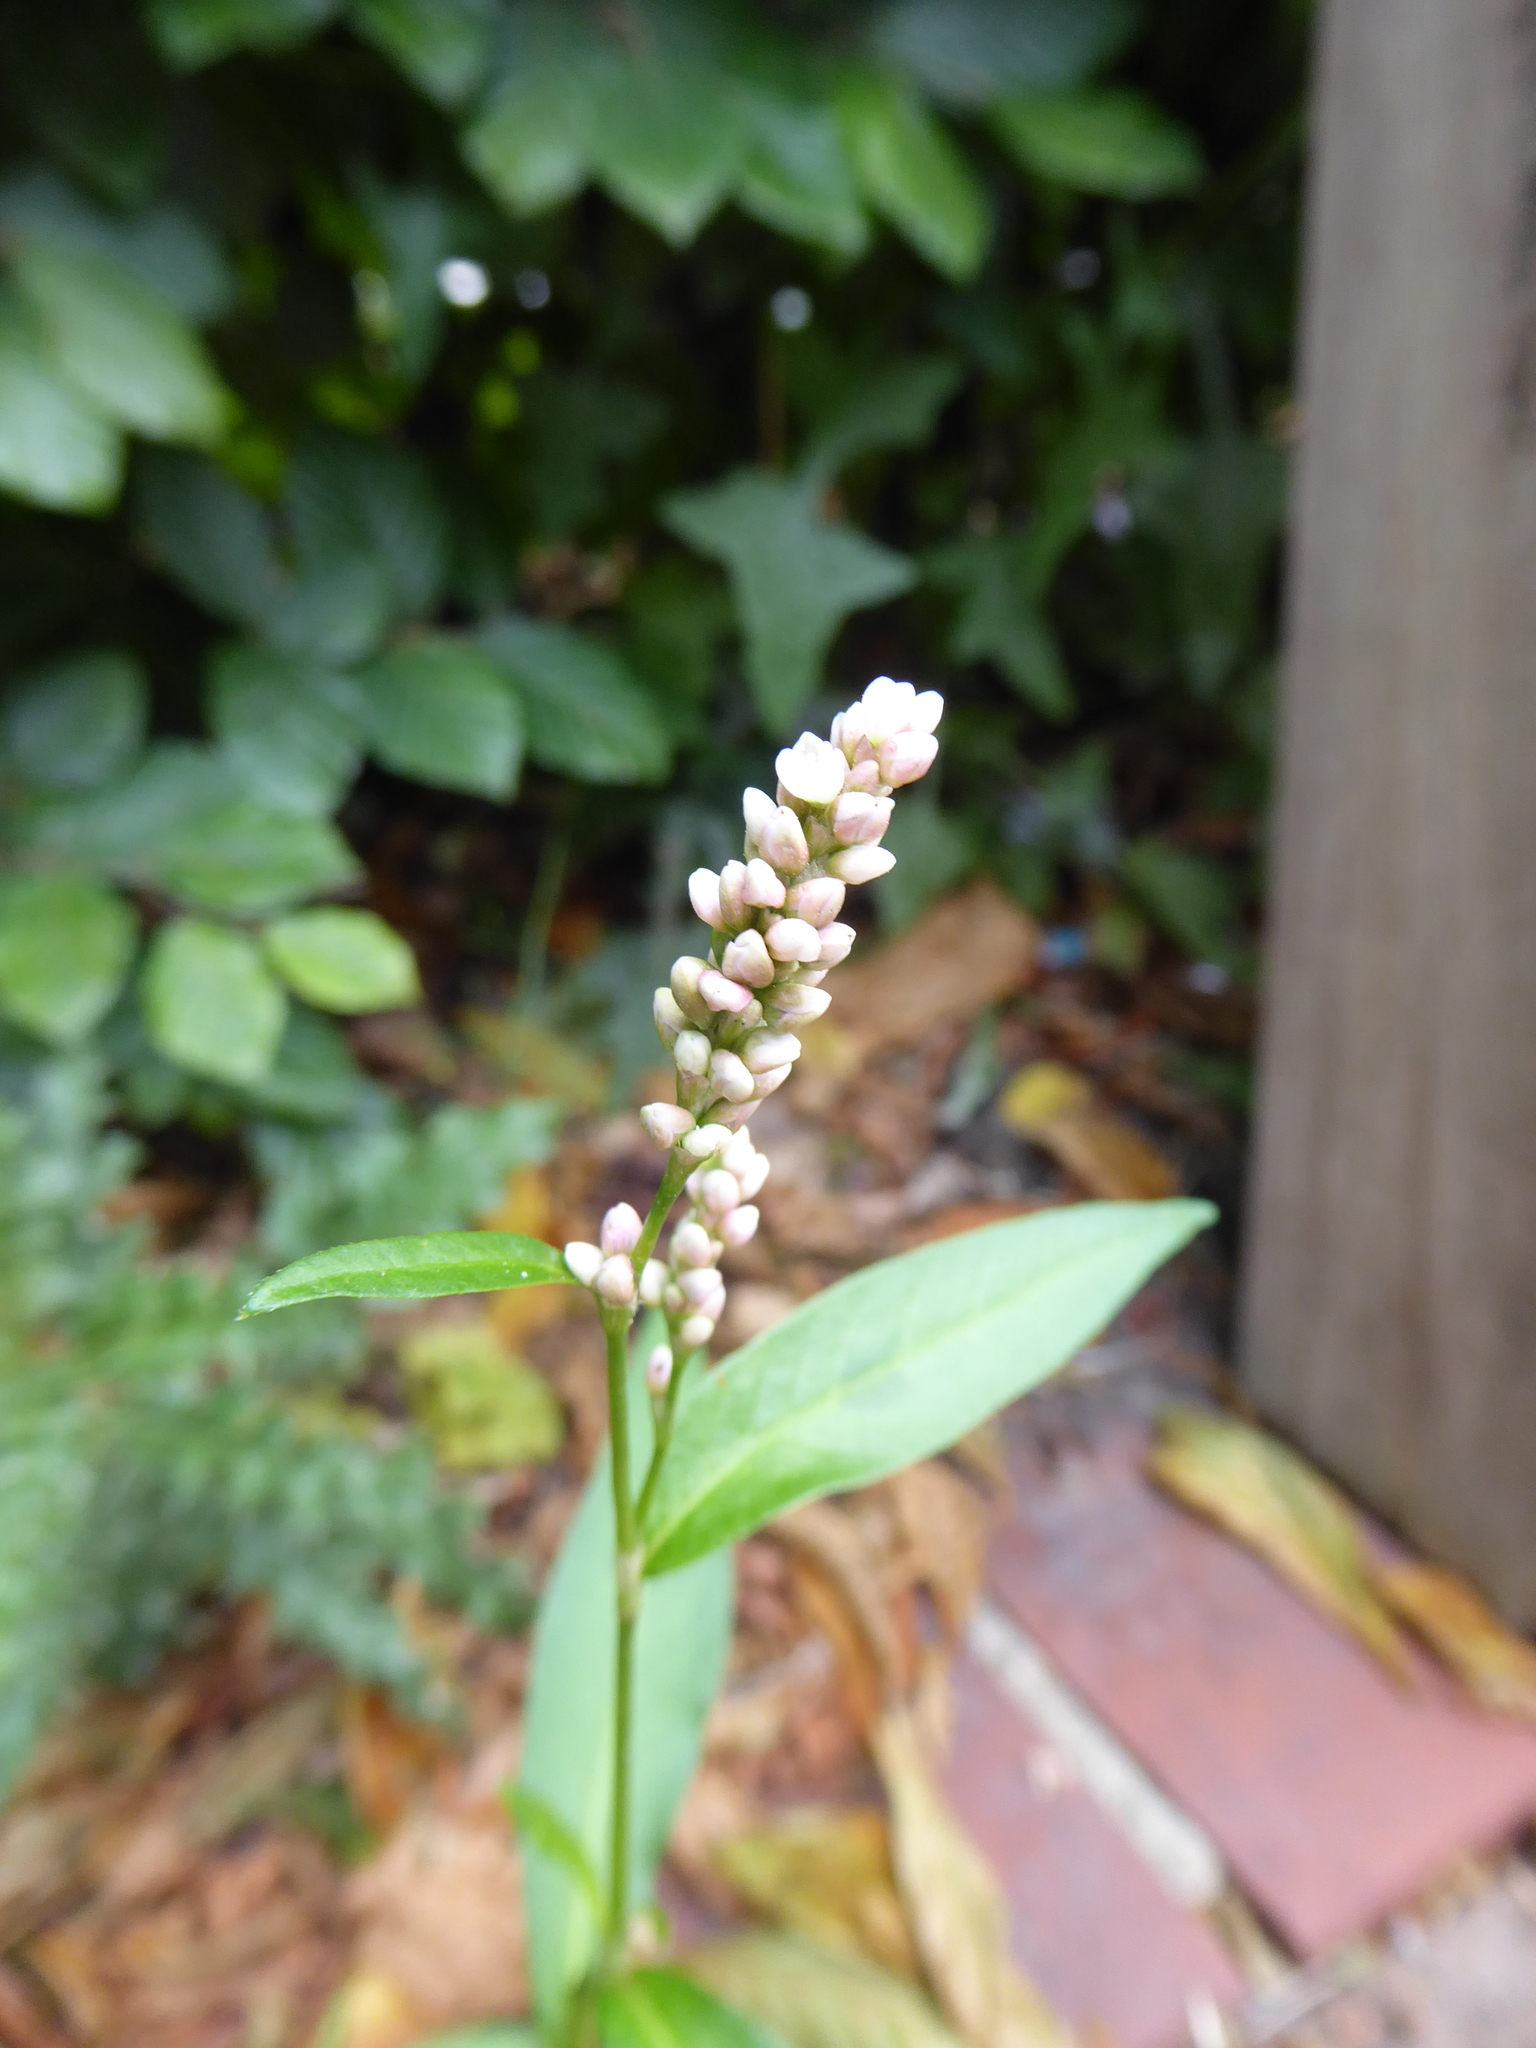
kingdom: Plantae
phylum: Tracheophyta
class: Magnoliopsida
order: Caryophyllales
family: Polygonaceae
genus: Persicaria
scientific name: Persicaria maculosa
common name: Redshank
